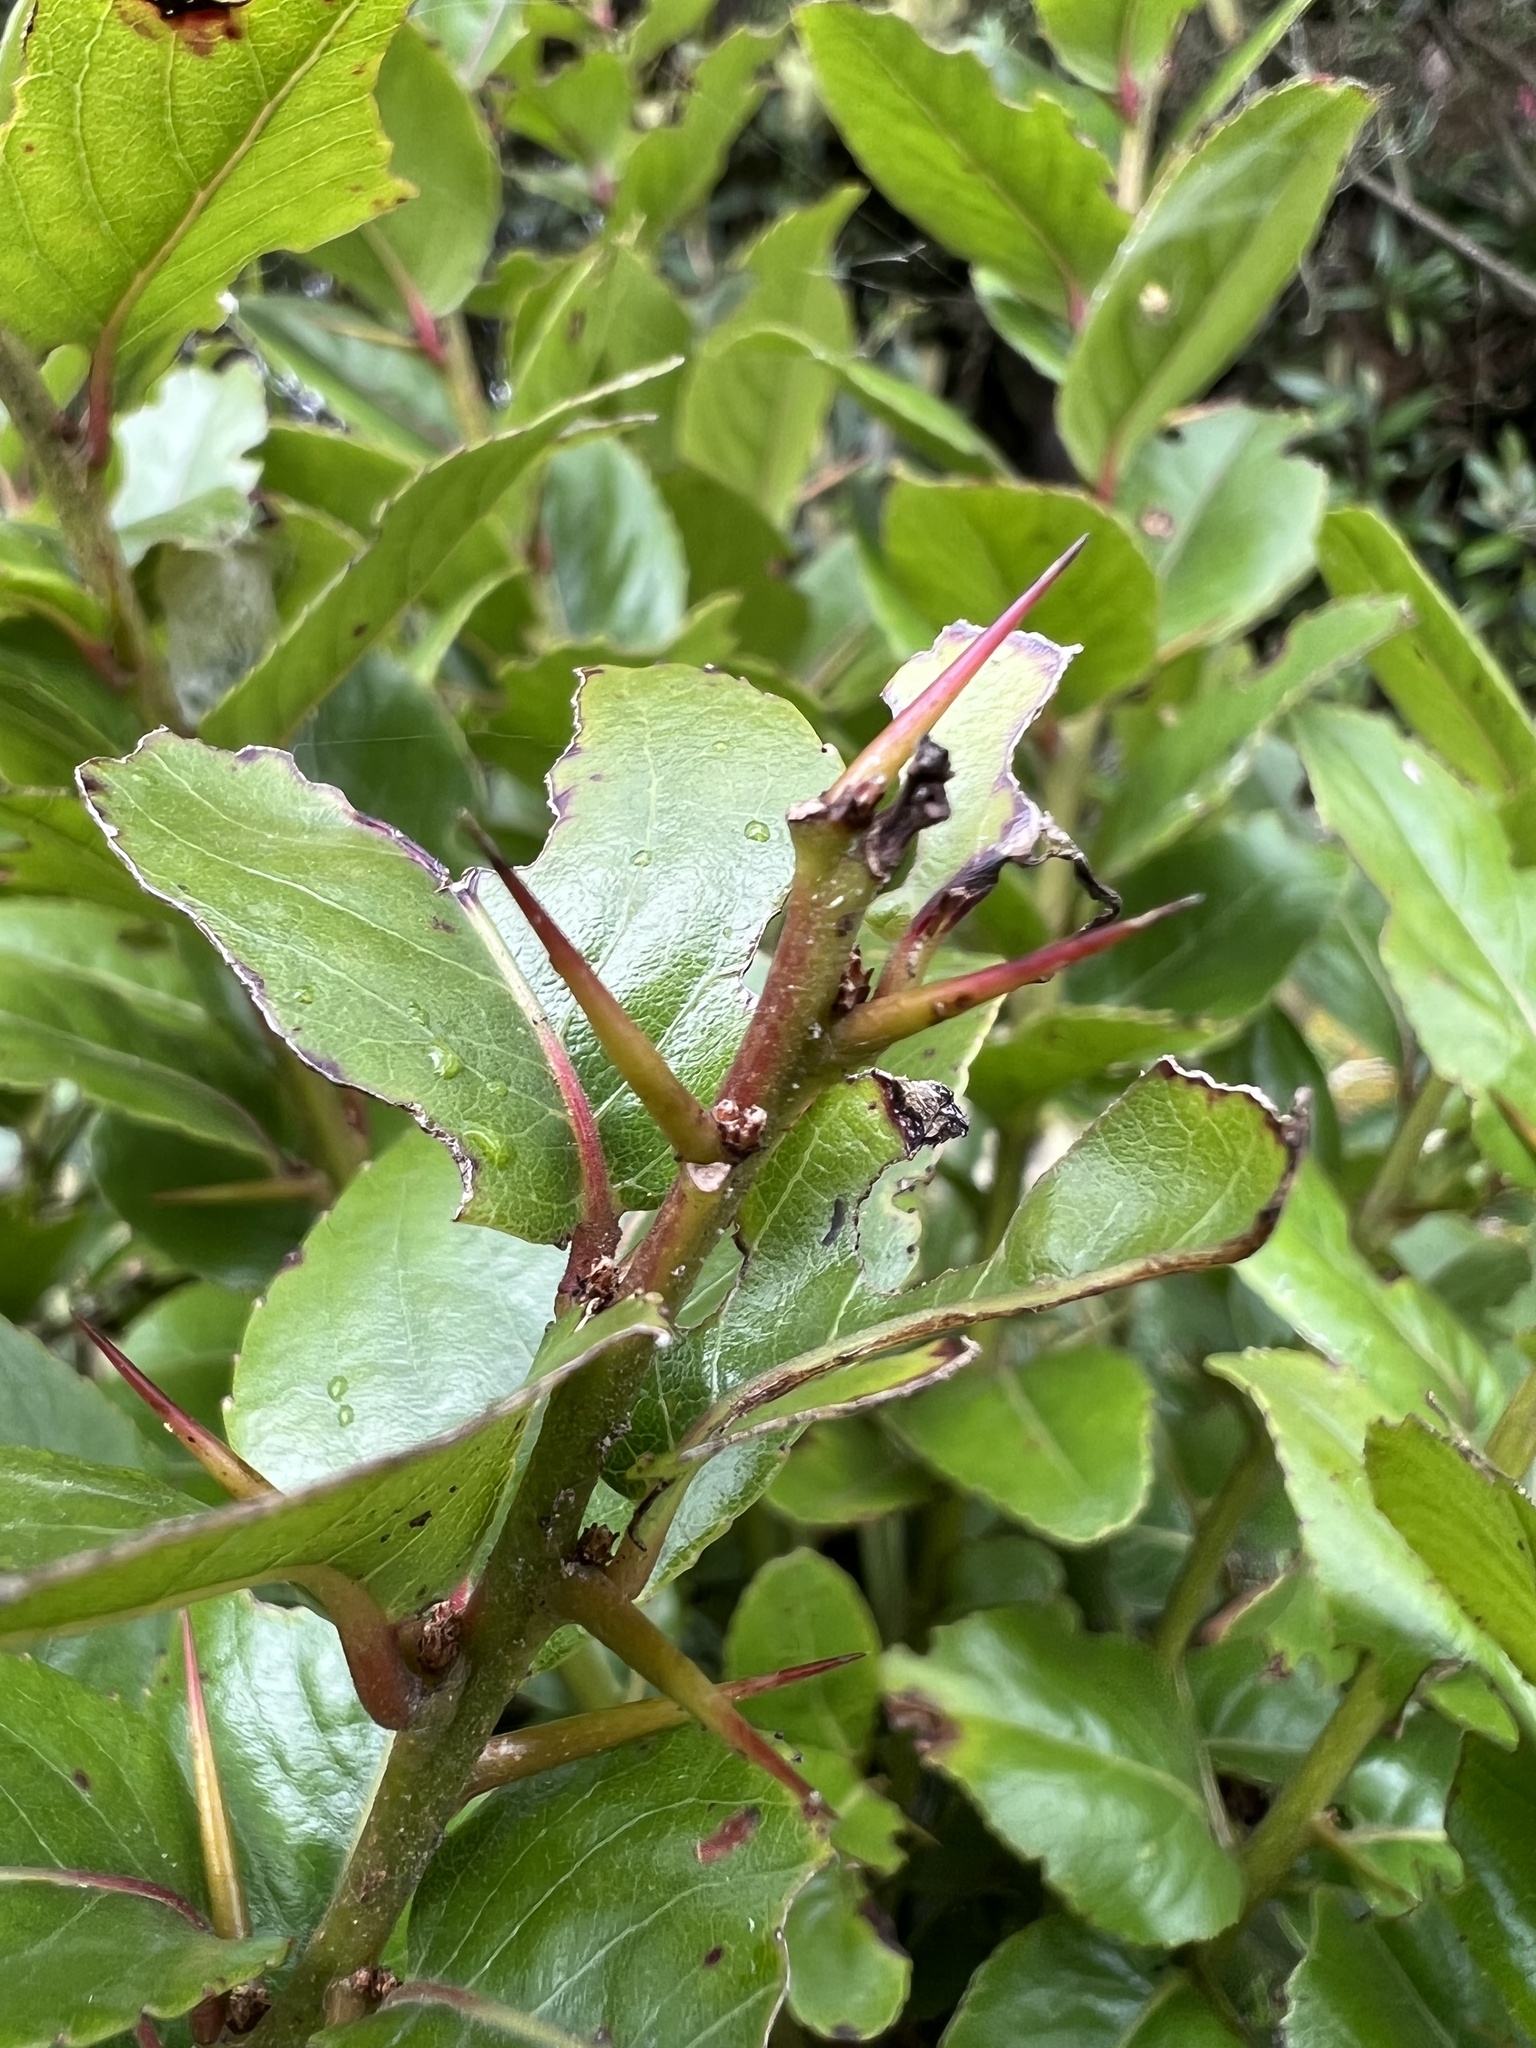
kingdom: Plantae
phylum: Tracheophyta
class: Magnoliopsida
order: Malpighiales
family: Salicaceae
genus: Xylosma
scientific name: Xylosma spiculifera
